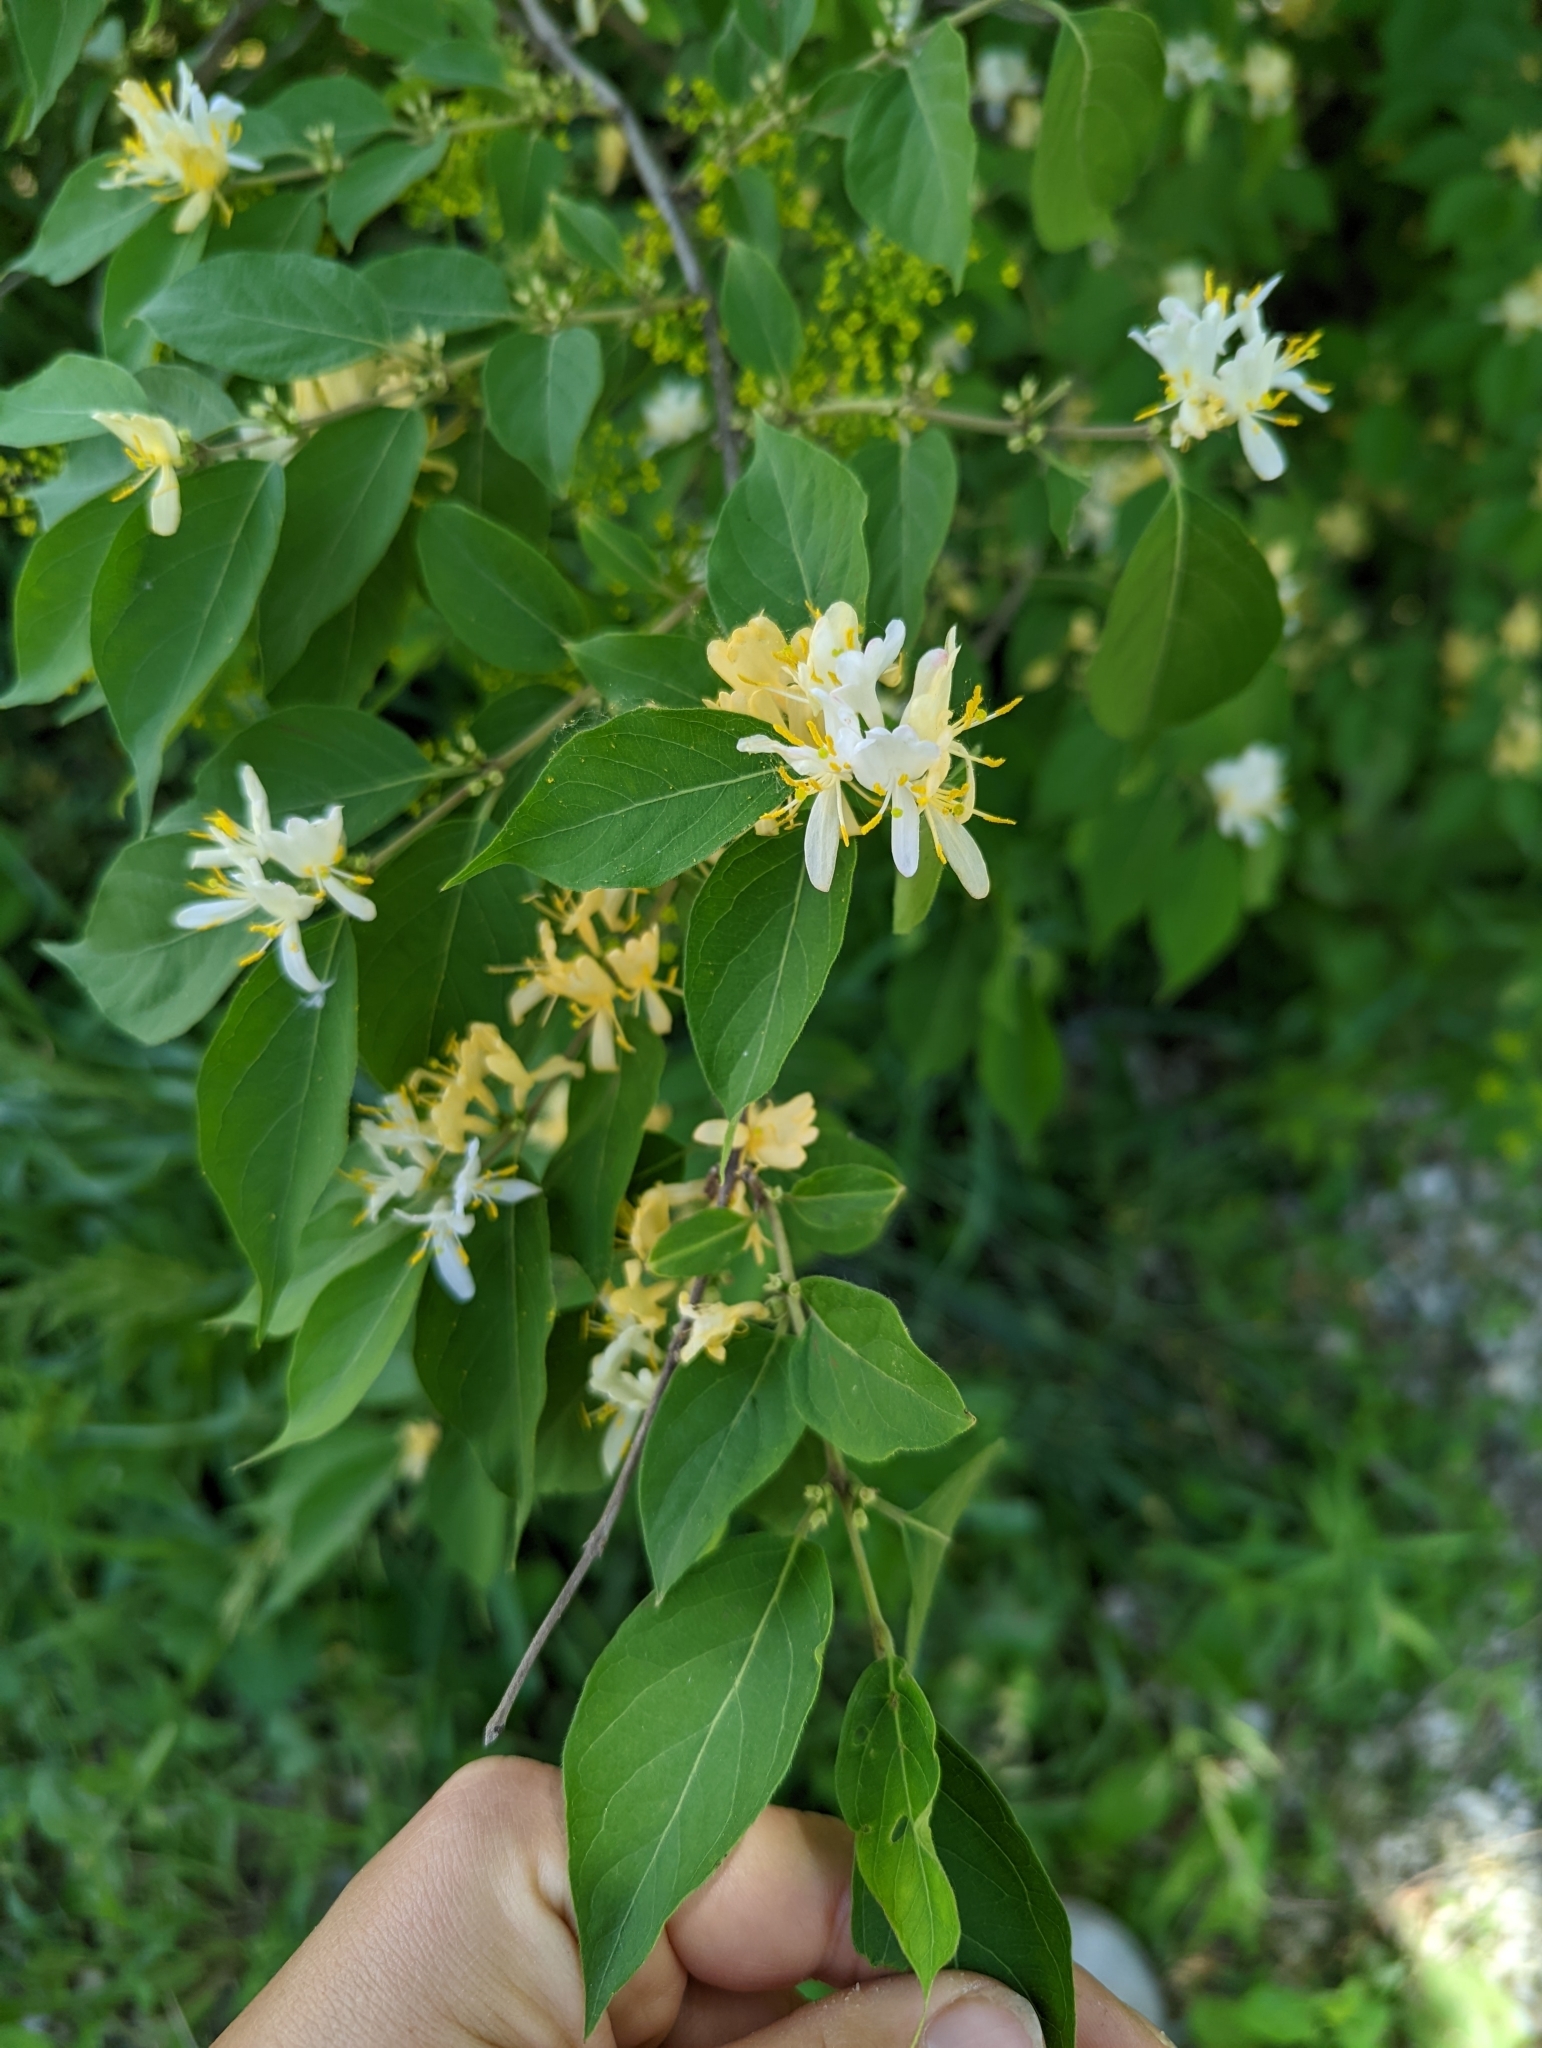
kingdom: Plantae
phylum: Tracheophyta
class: Magnoliopsida
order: Dipsacales
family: Caprifoliaceae
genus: Lonicera
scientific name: Lonicera maackii
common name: Amur honeysuckle
